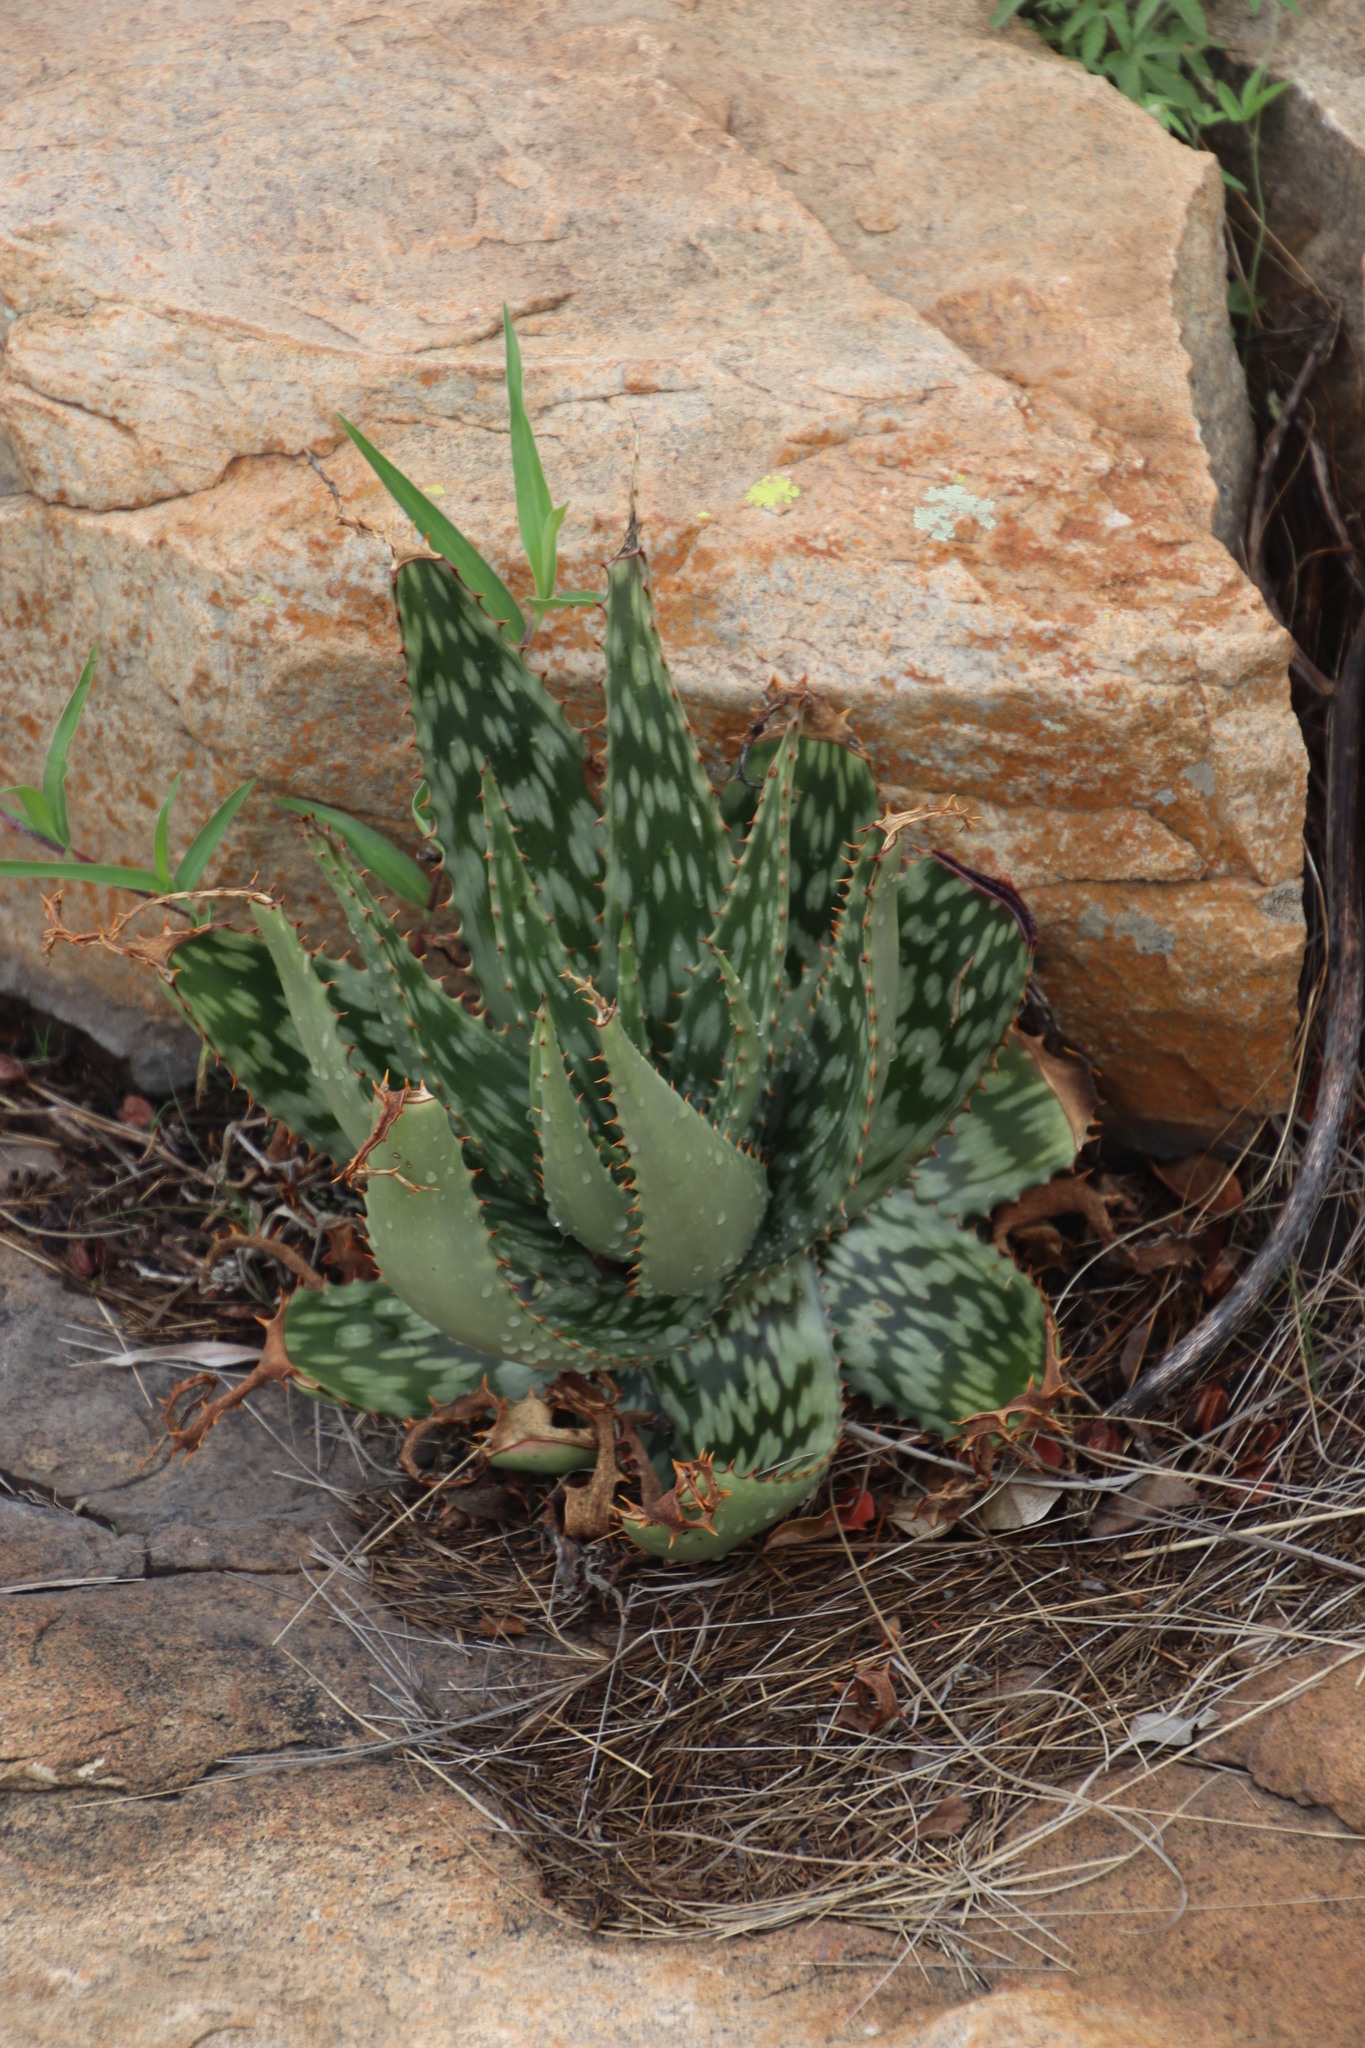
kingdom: Plantae
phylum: Tracheophyta
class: Liliopsida
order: Asparagales
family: Asphodelaceae
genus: Aloe
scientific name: Aloe davyana
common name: Spotted aloe
